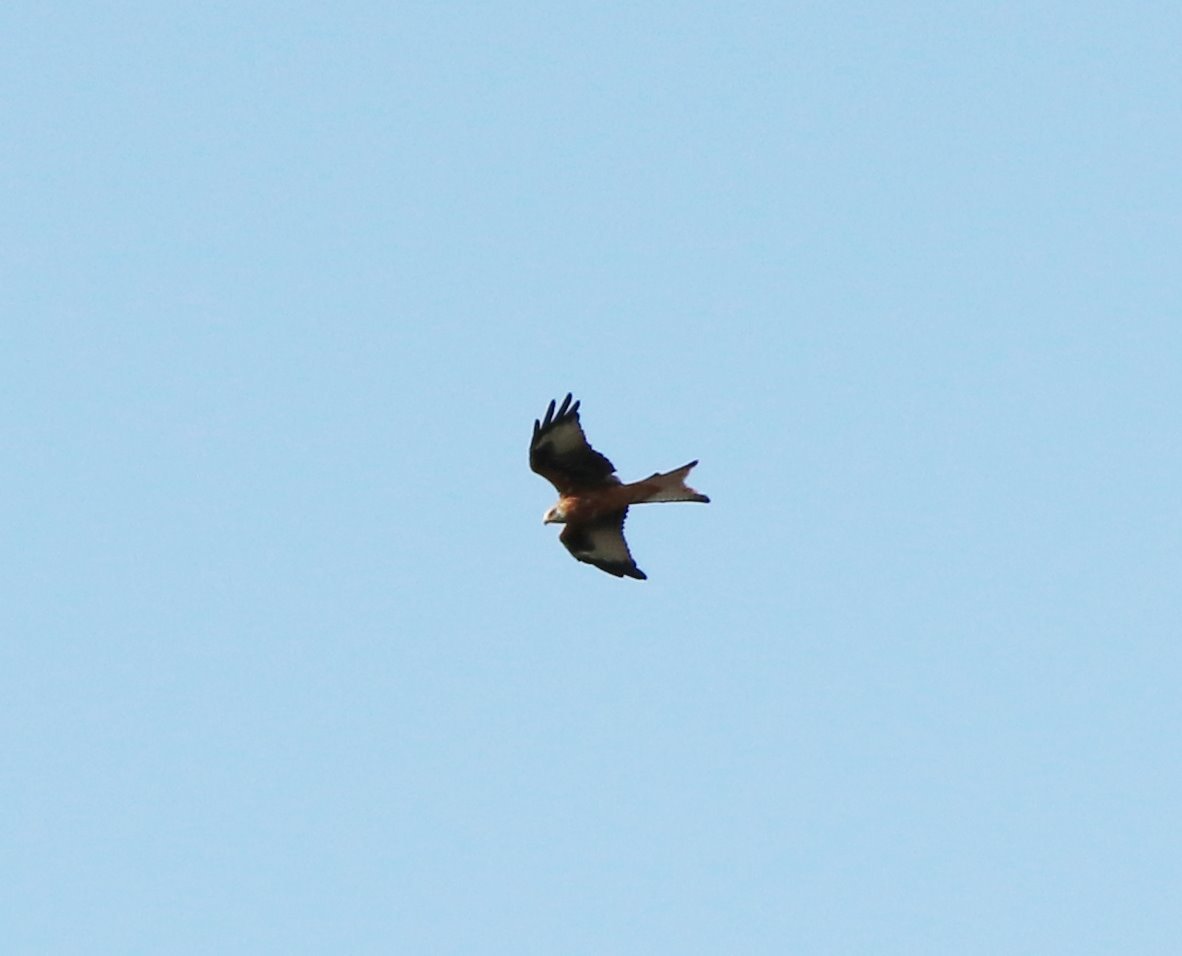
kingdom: Animalia
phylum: Chordata
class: Aves
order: Accipitriformes
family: Accipitridae
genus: Milvus
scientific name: Milvus milvus
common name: Red kite
